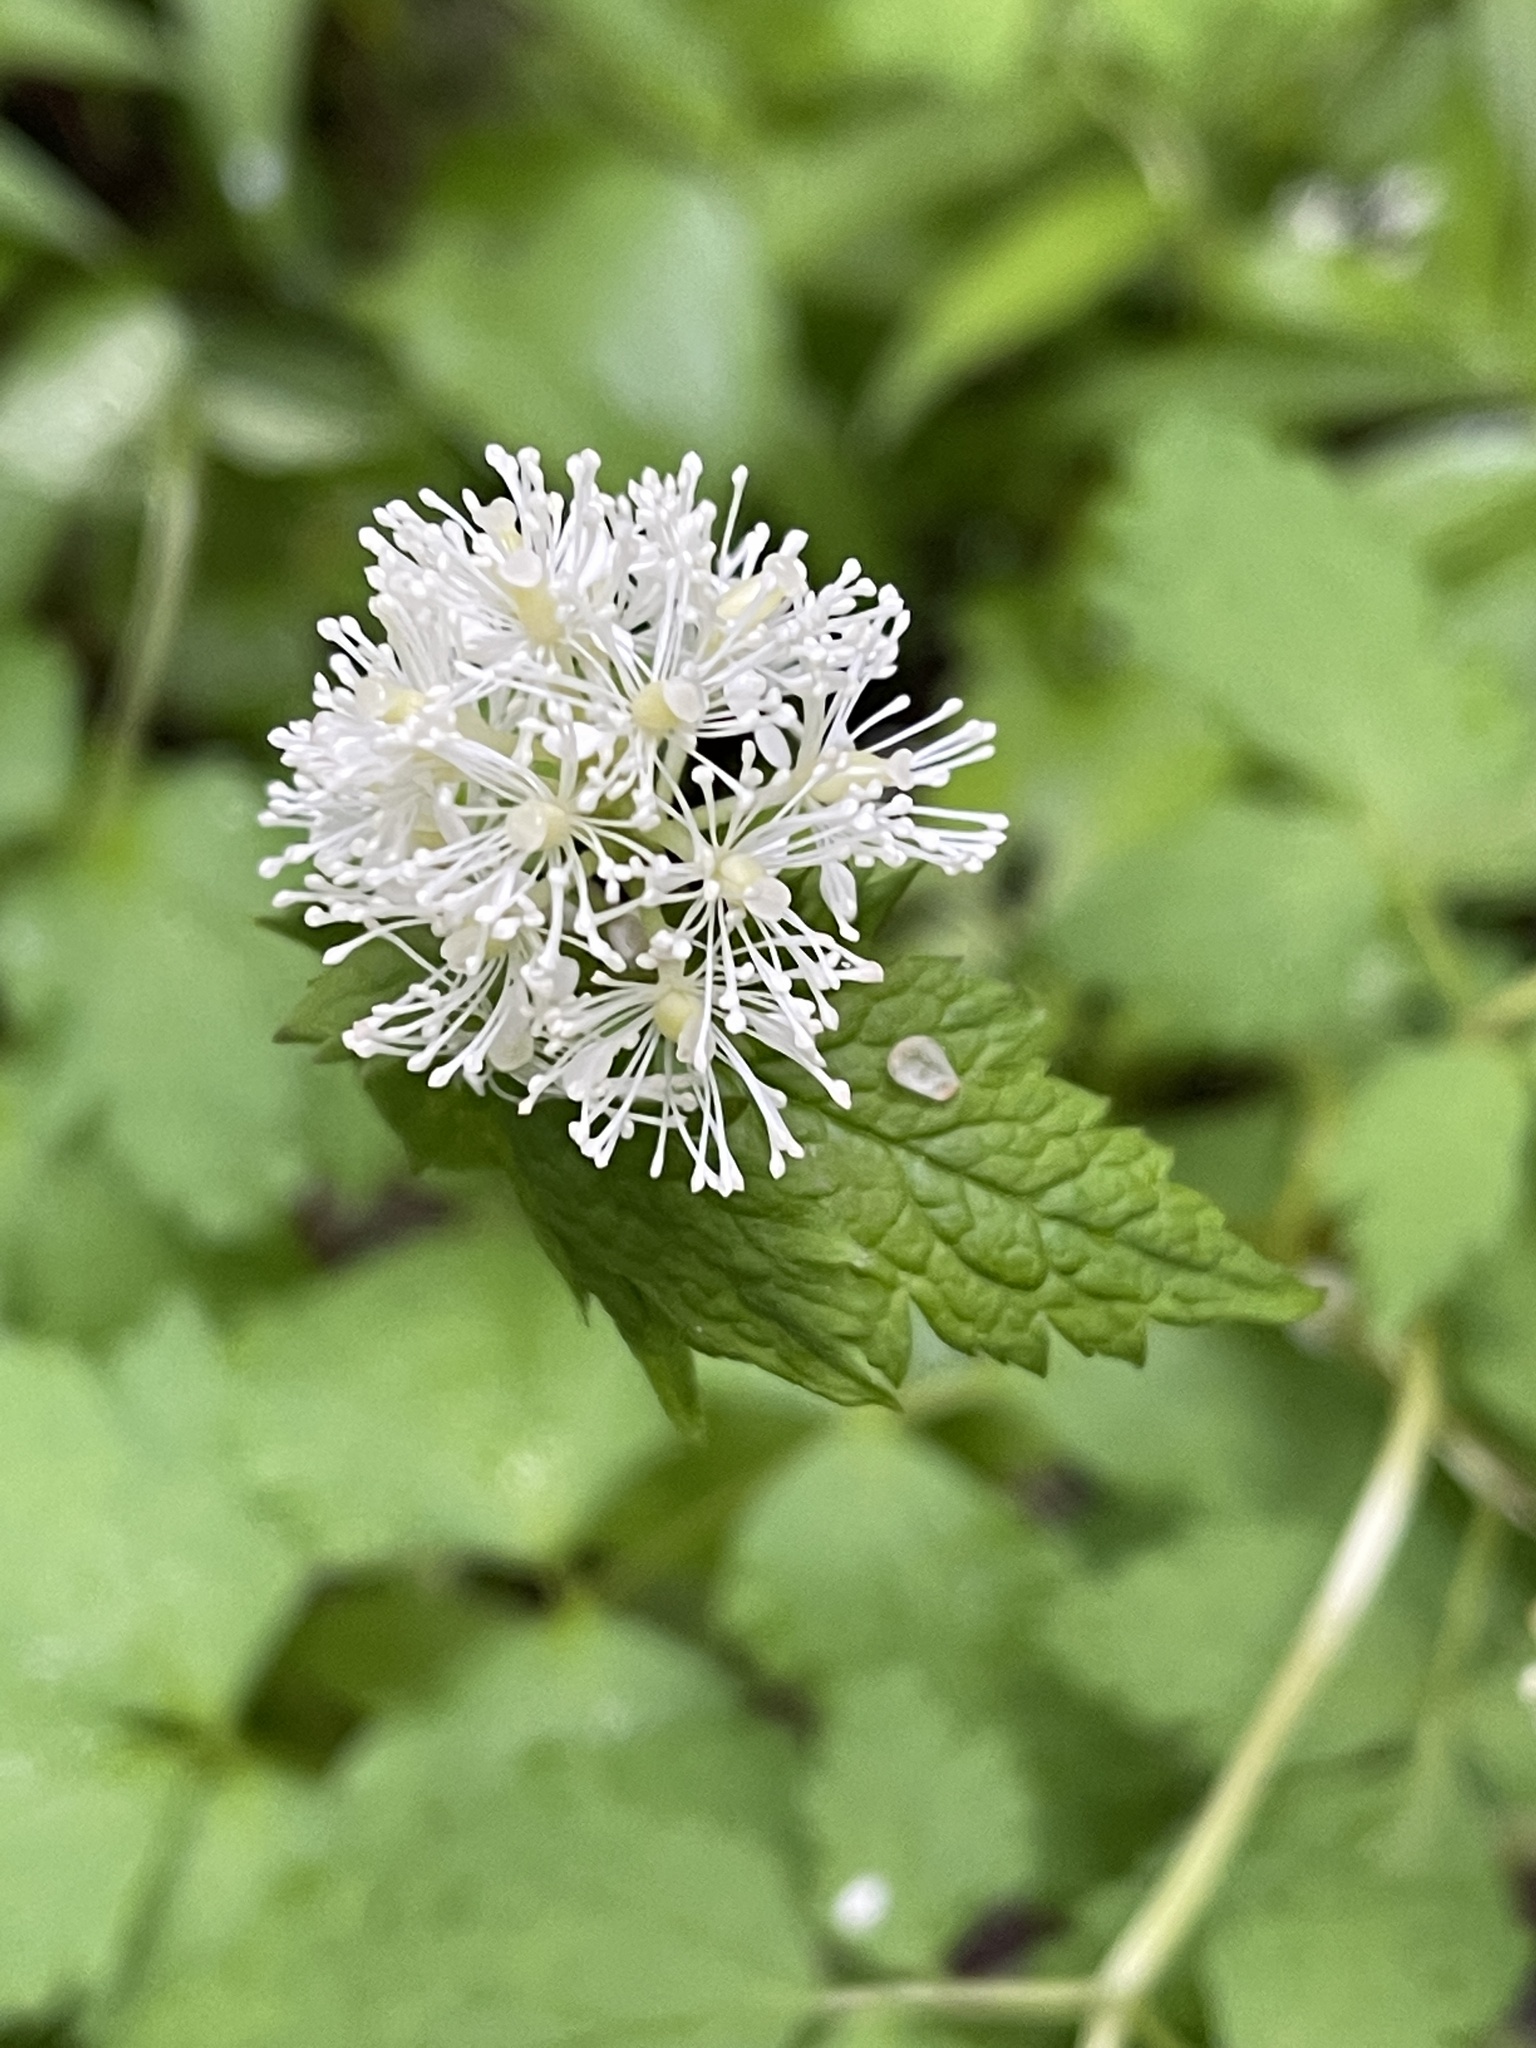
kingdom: Plantae
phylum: Tracheophyta
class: Magnoliopsida
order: Ranunculales
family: Ranunculaceae
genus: Actaea
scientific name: Actaea rubra
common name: Red baneberry
